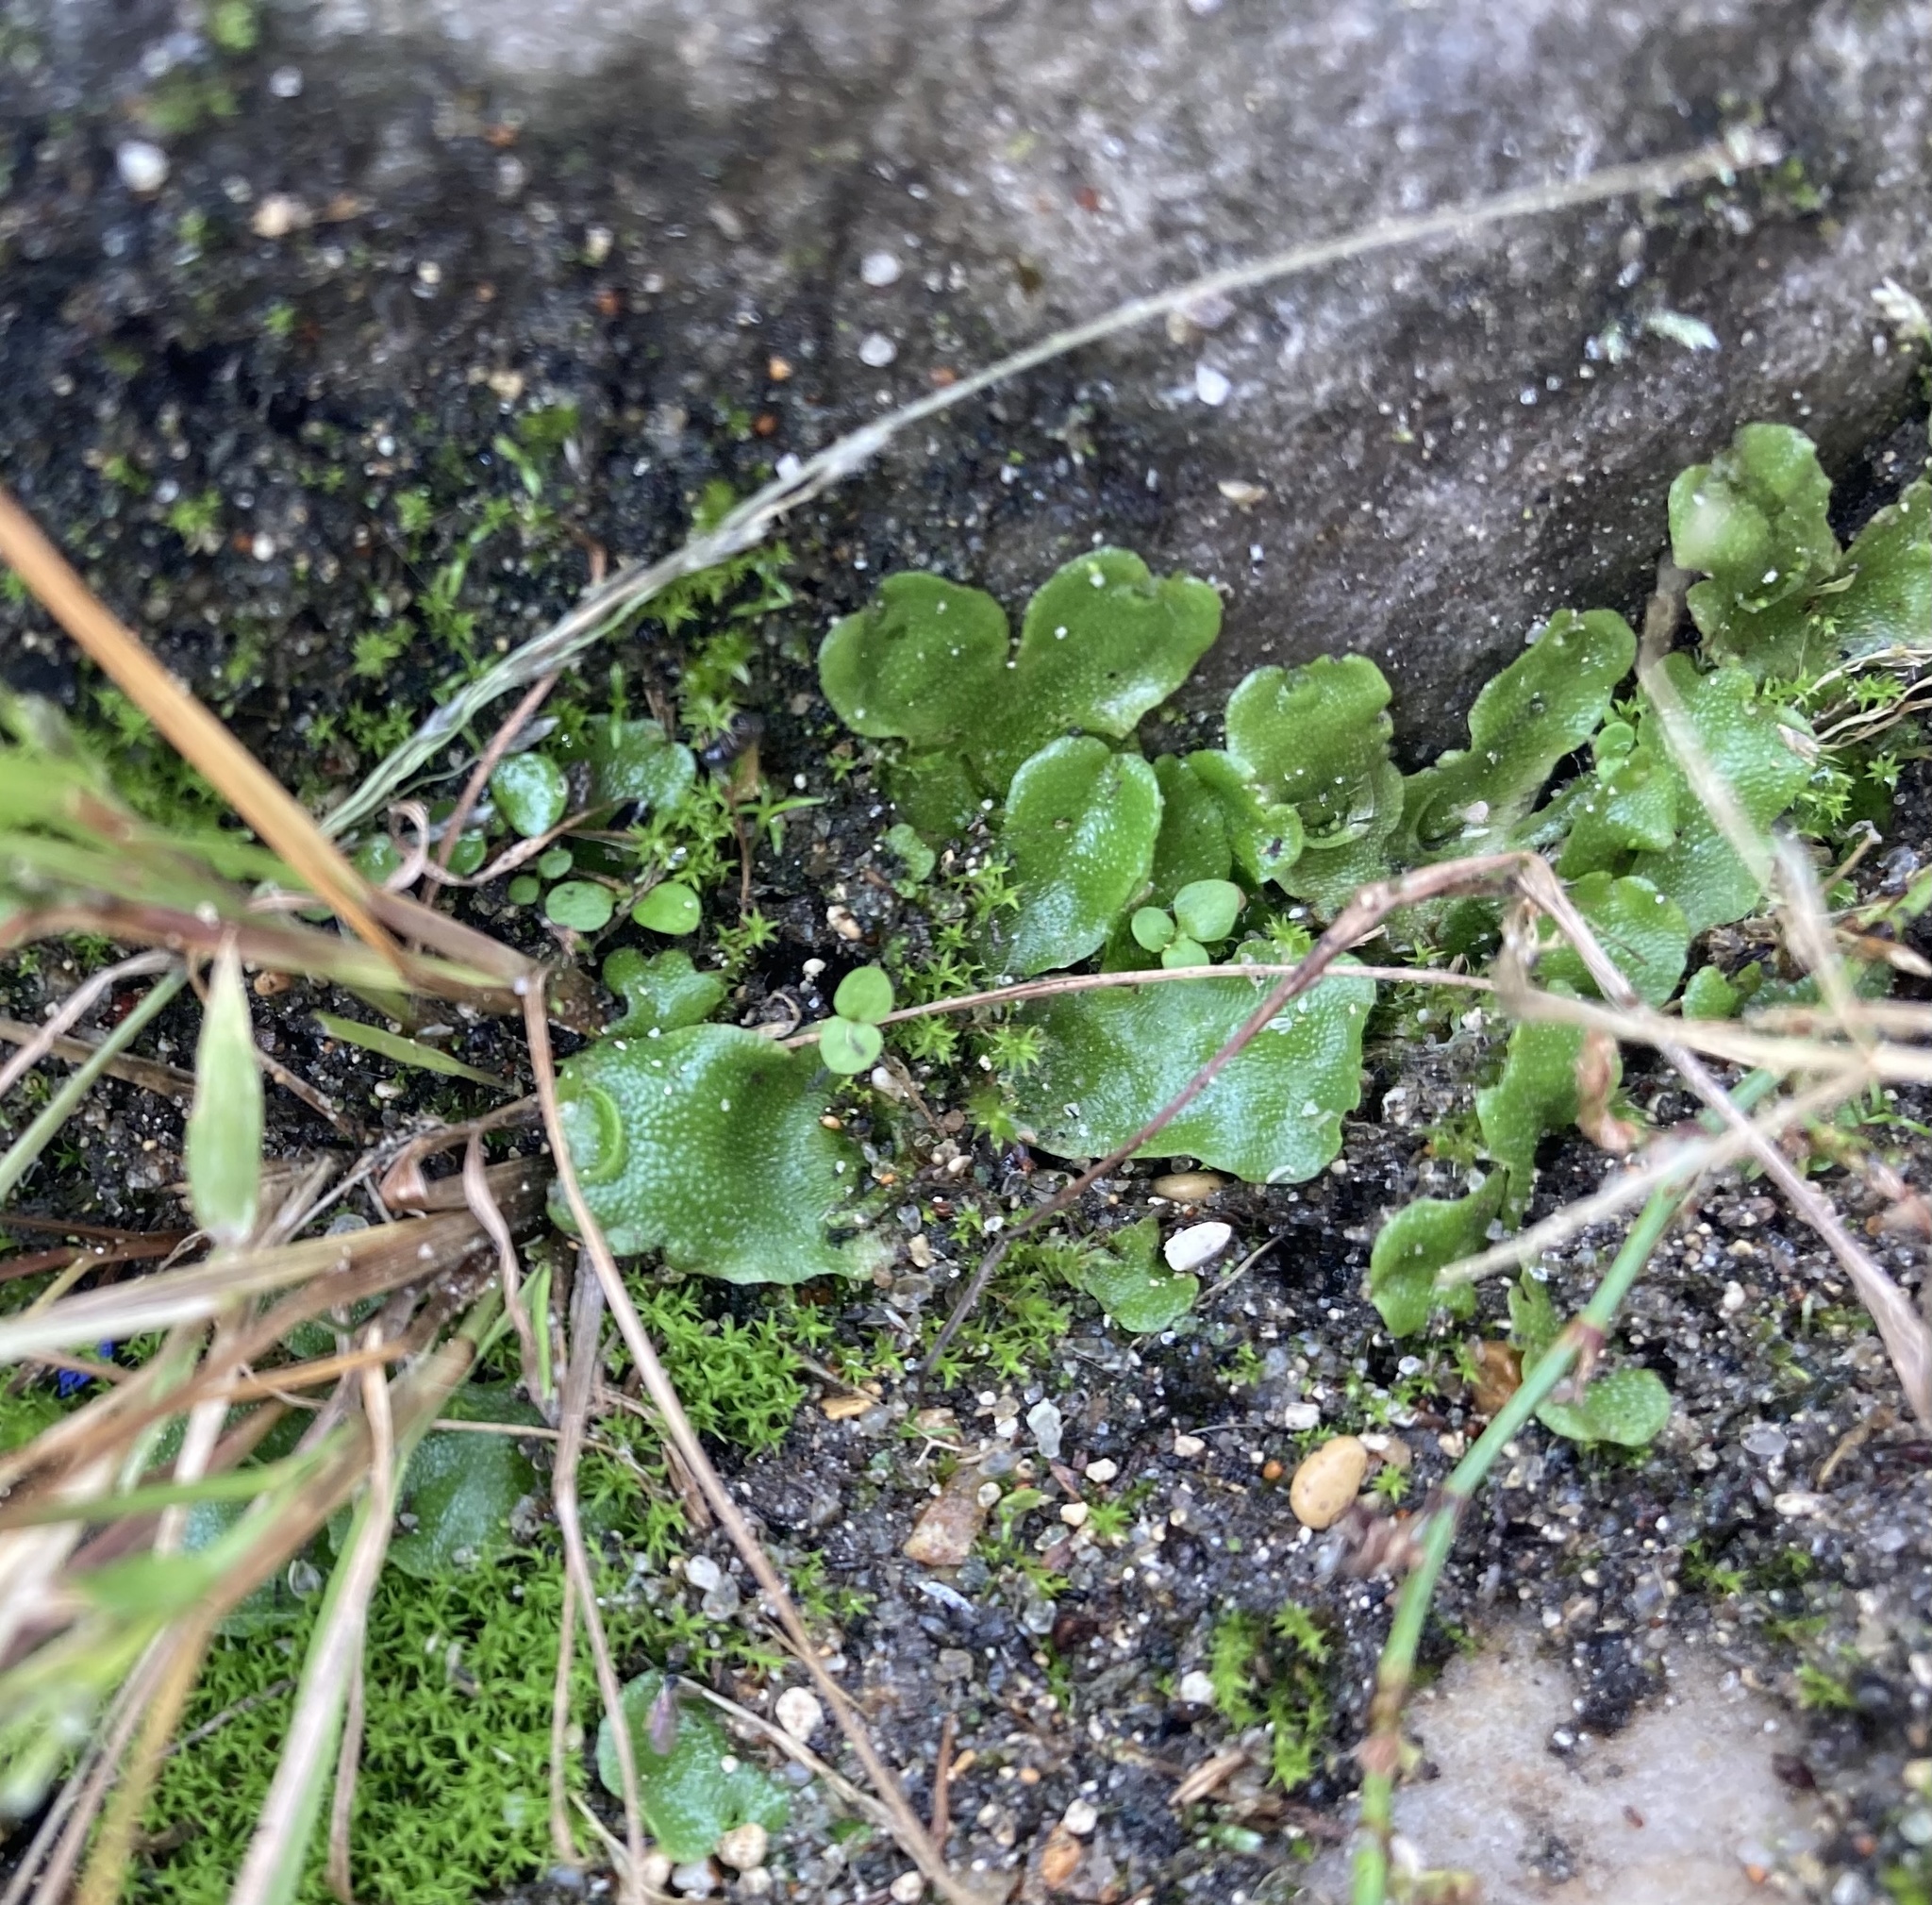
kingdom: Plantae
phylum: Marchantiophyta
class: Marchantiopsida
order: Lunulariales
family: Lunulariaceae
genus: Lunularia
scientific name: Lunularia cruciata
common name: Crescent-cup liverwort
